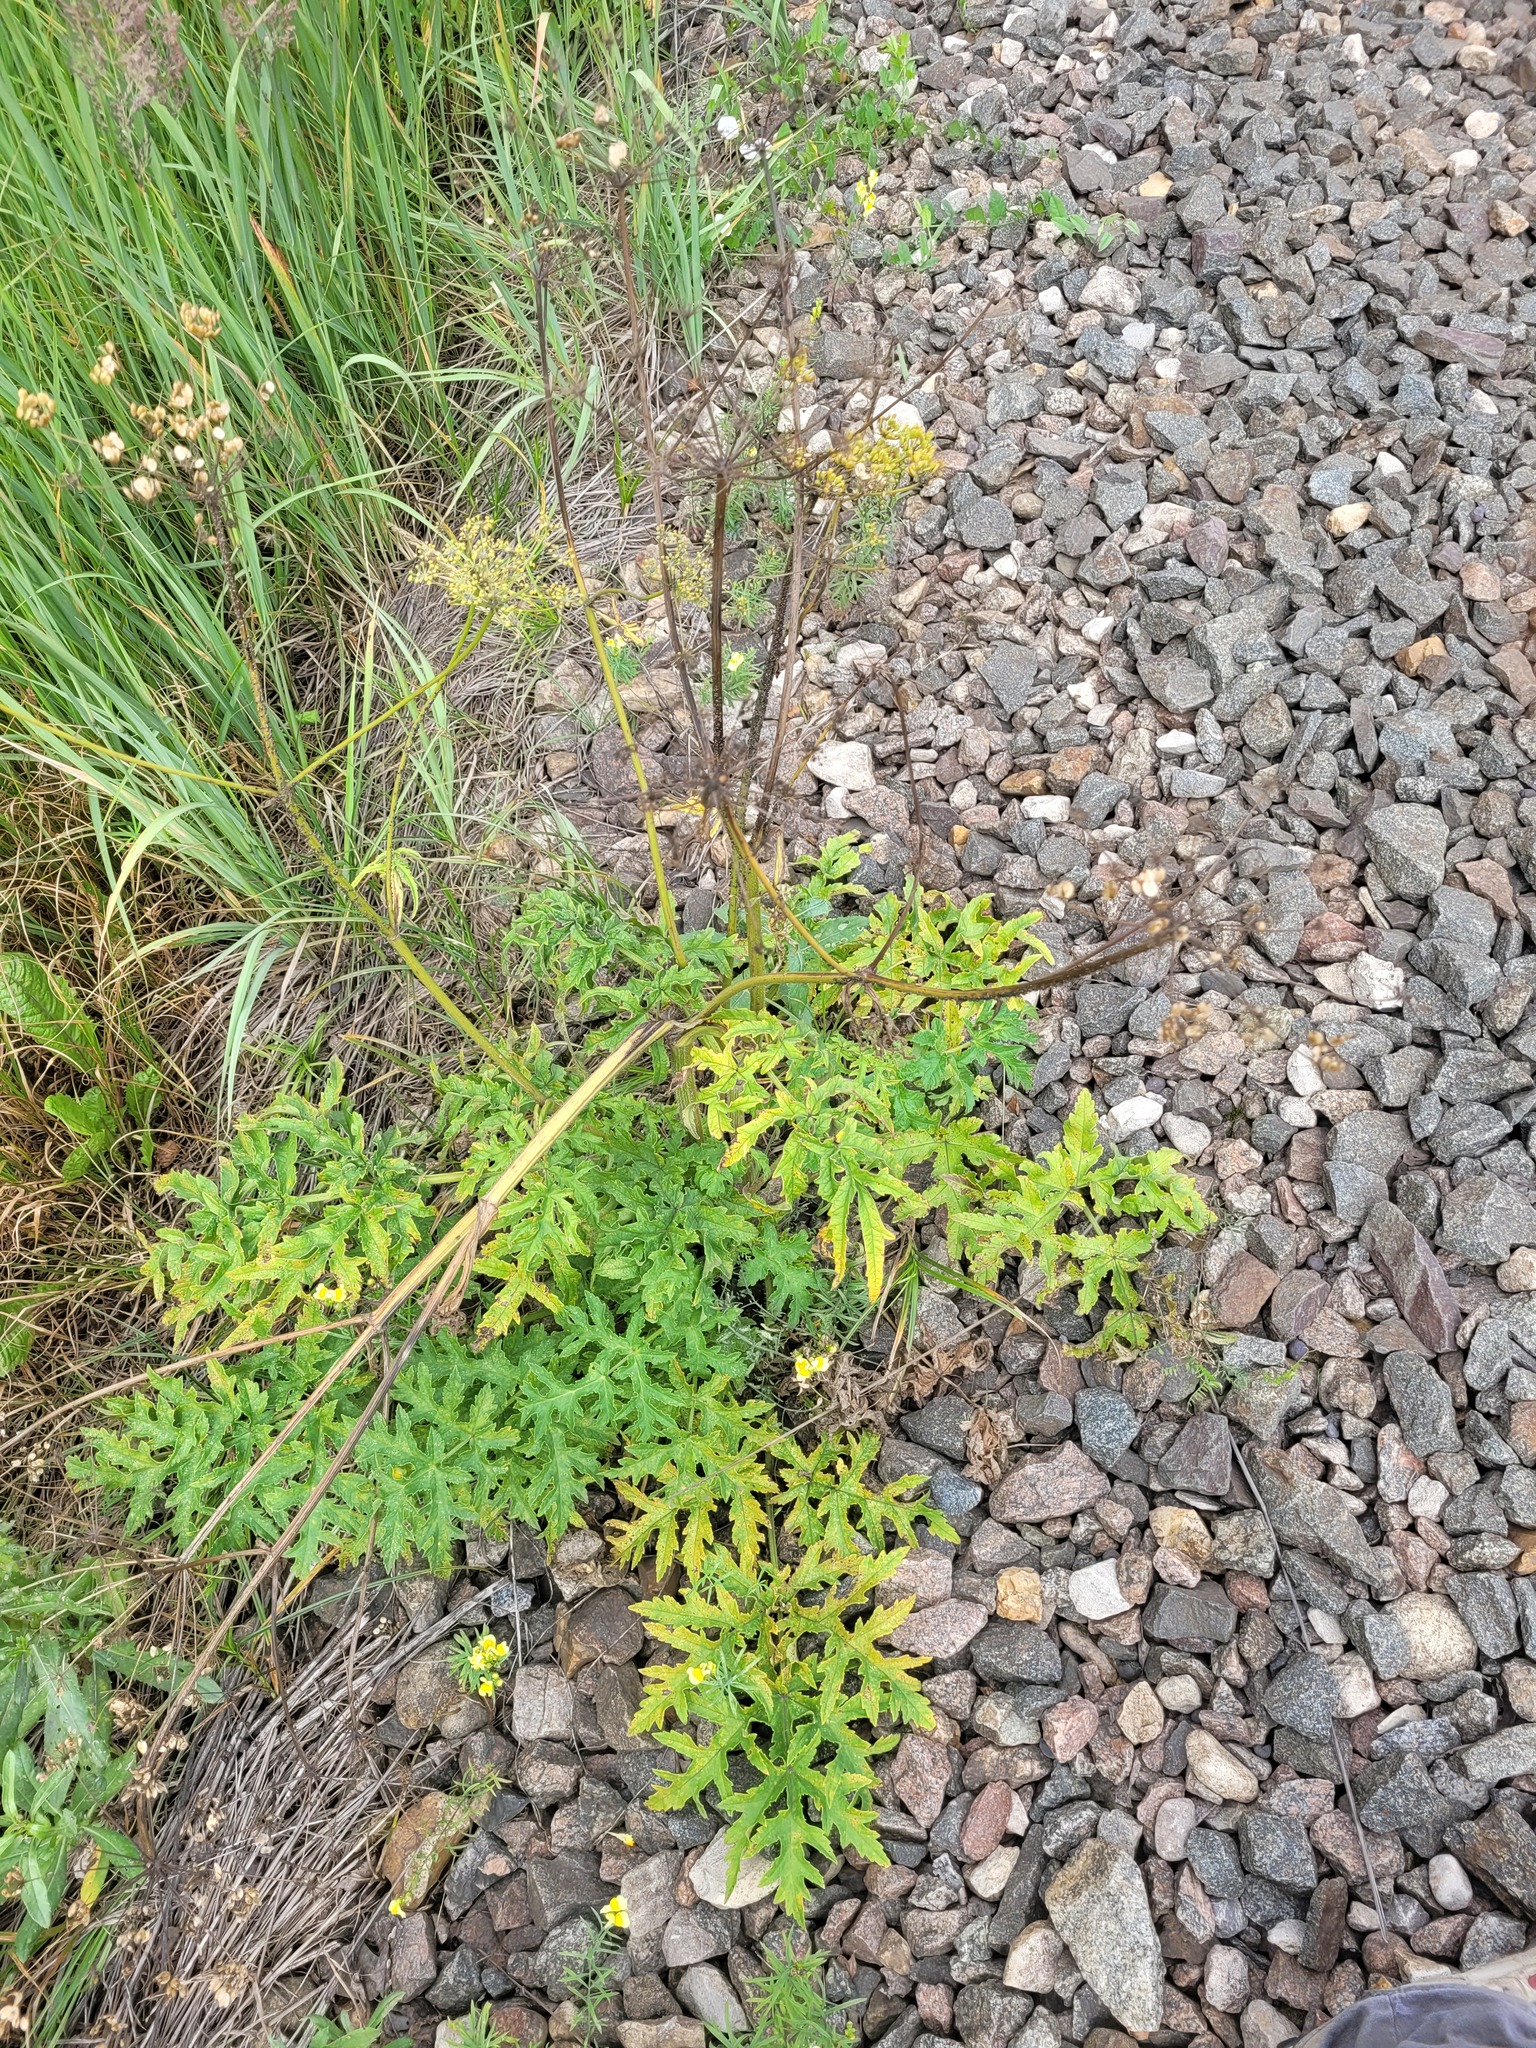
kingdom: Plantae
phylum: Tracheophyta
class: Magnoliopsida
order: Apiales
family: Apiaceae
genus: Heracleum
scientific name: Heracleum sphondylium
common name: Hogweed
